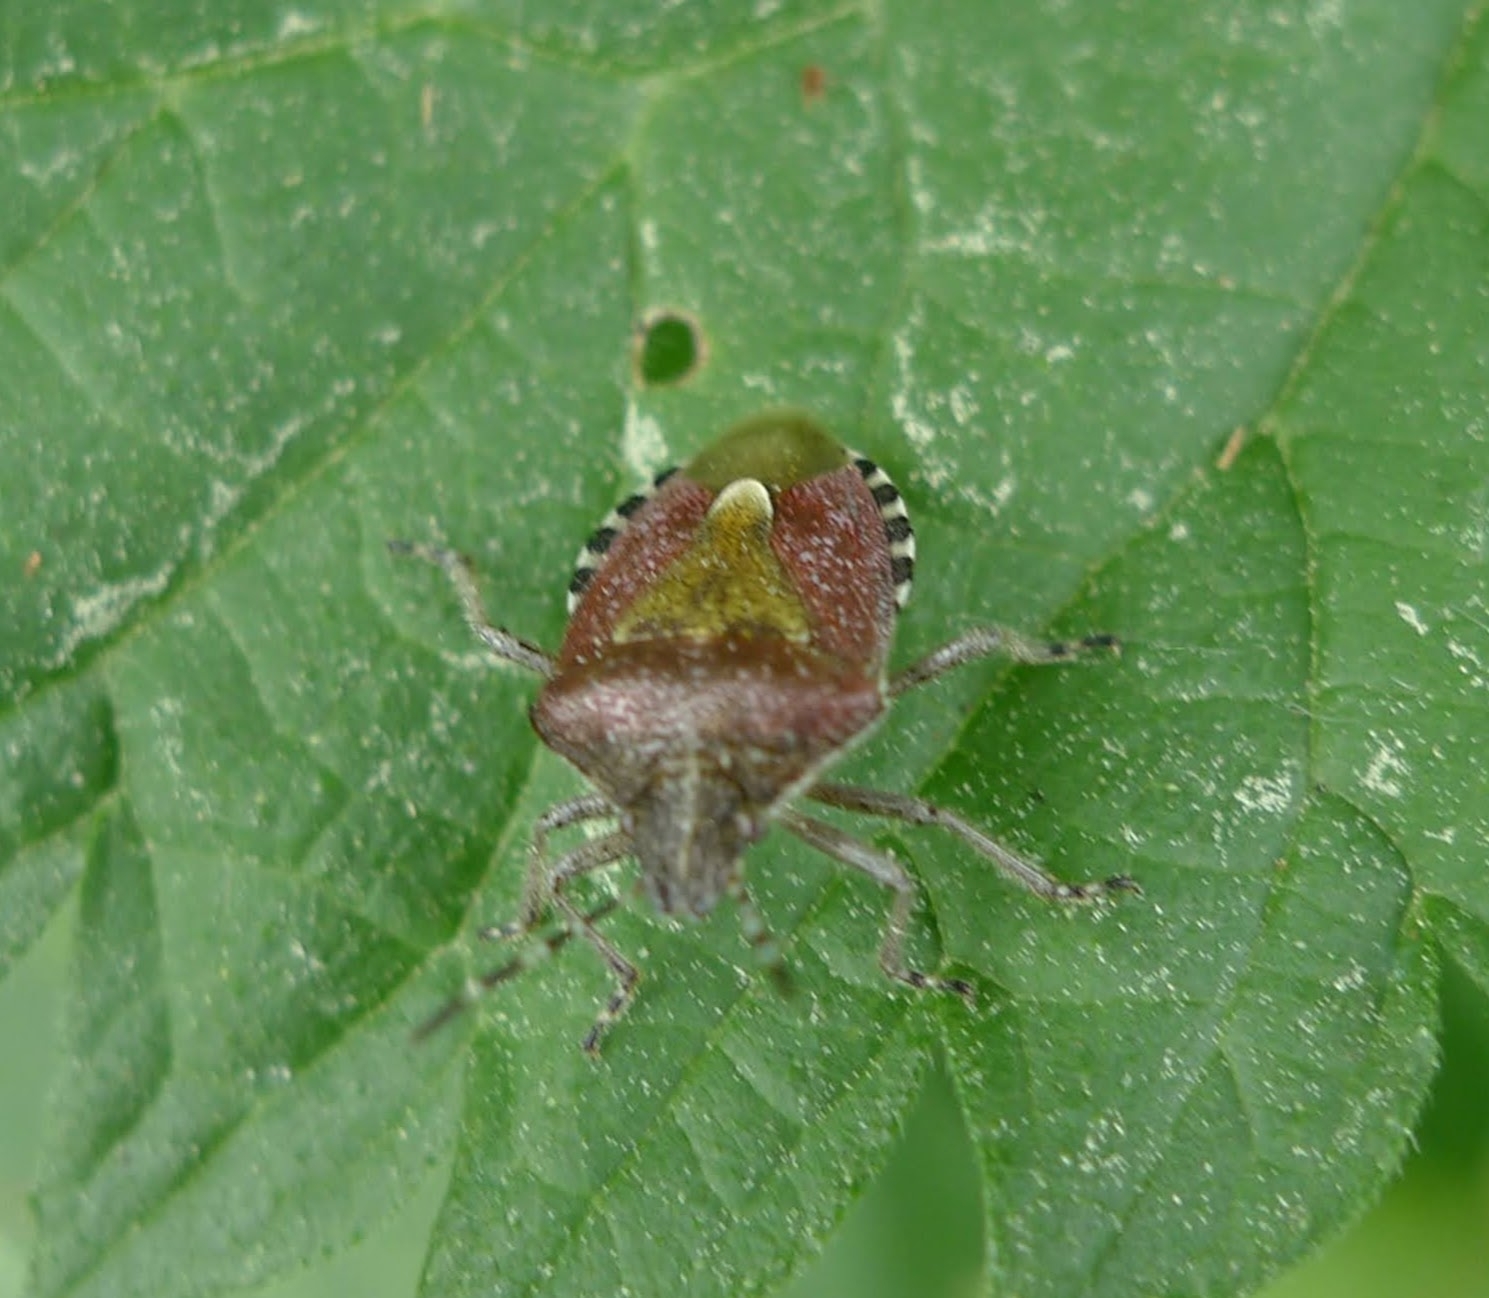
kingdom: Animalia
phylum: Arthropoda
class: Insecta
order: Hemiptera
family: Pentatomidae
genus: Dolycoris
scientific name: Dolycoris baccarum
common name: Sloe bug
